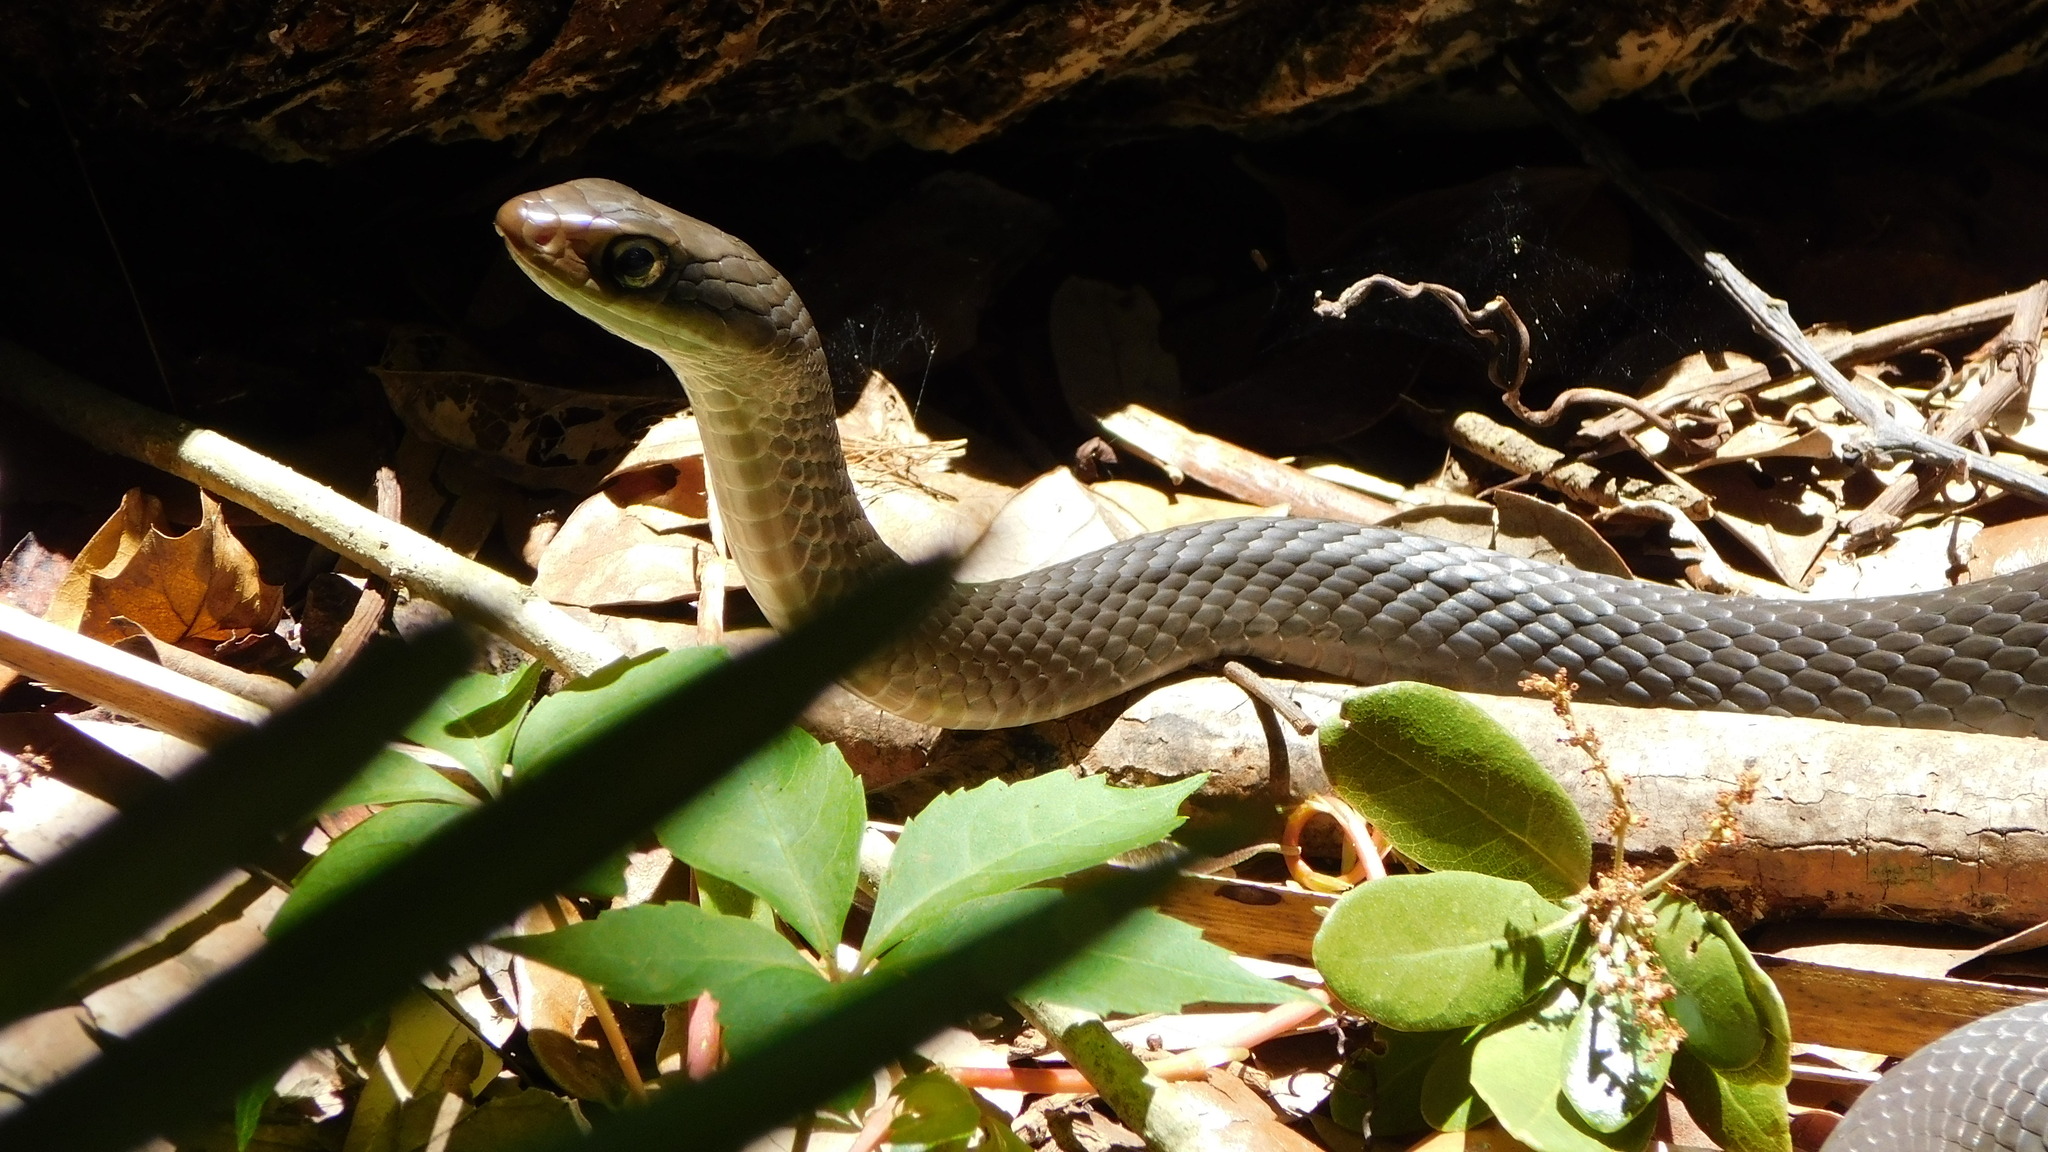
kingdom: Animalia
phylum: Chordata
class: Squamata
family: Colubridae
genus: Coluber
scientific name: Coluber constrictor
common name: Eastern racer
